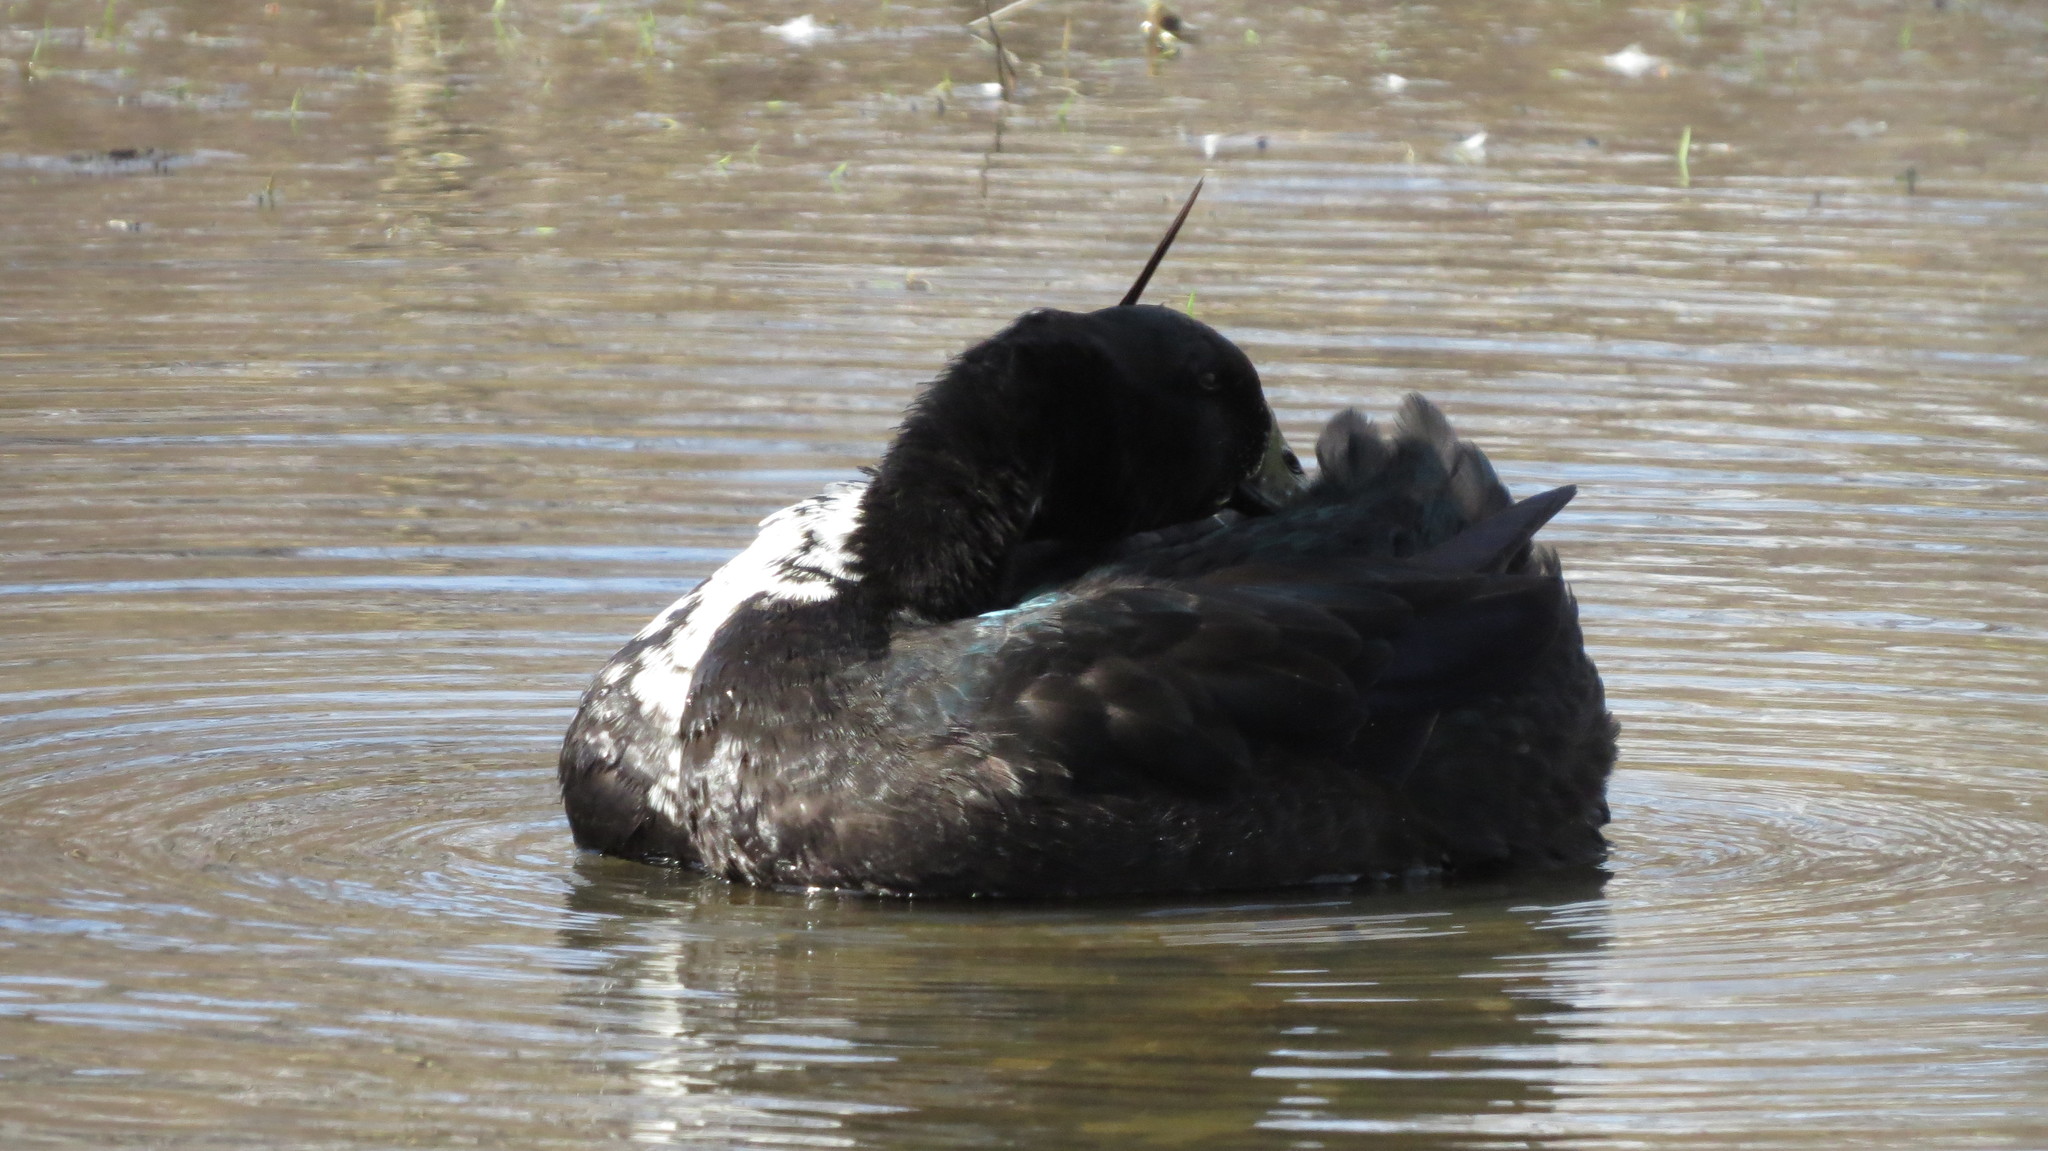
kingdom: Animalia
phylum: Chordata
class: Aves
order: Anseriformes
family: Anatidae
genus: Anas
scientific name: Anas platyrhynchos
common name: Mallard
